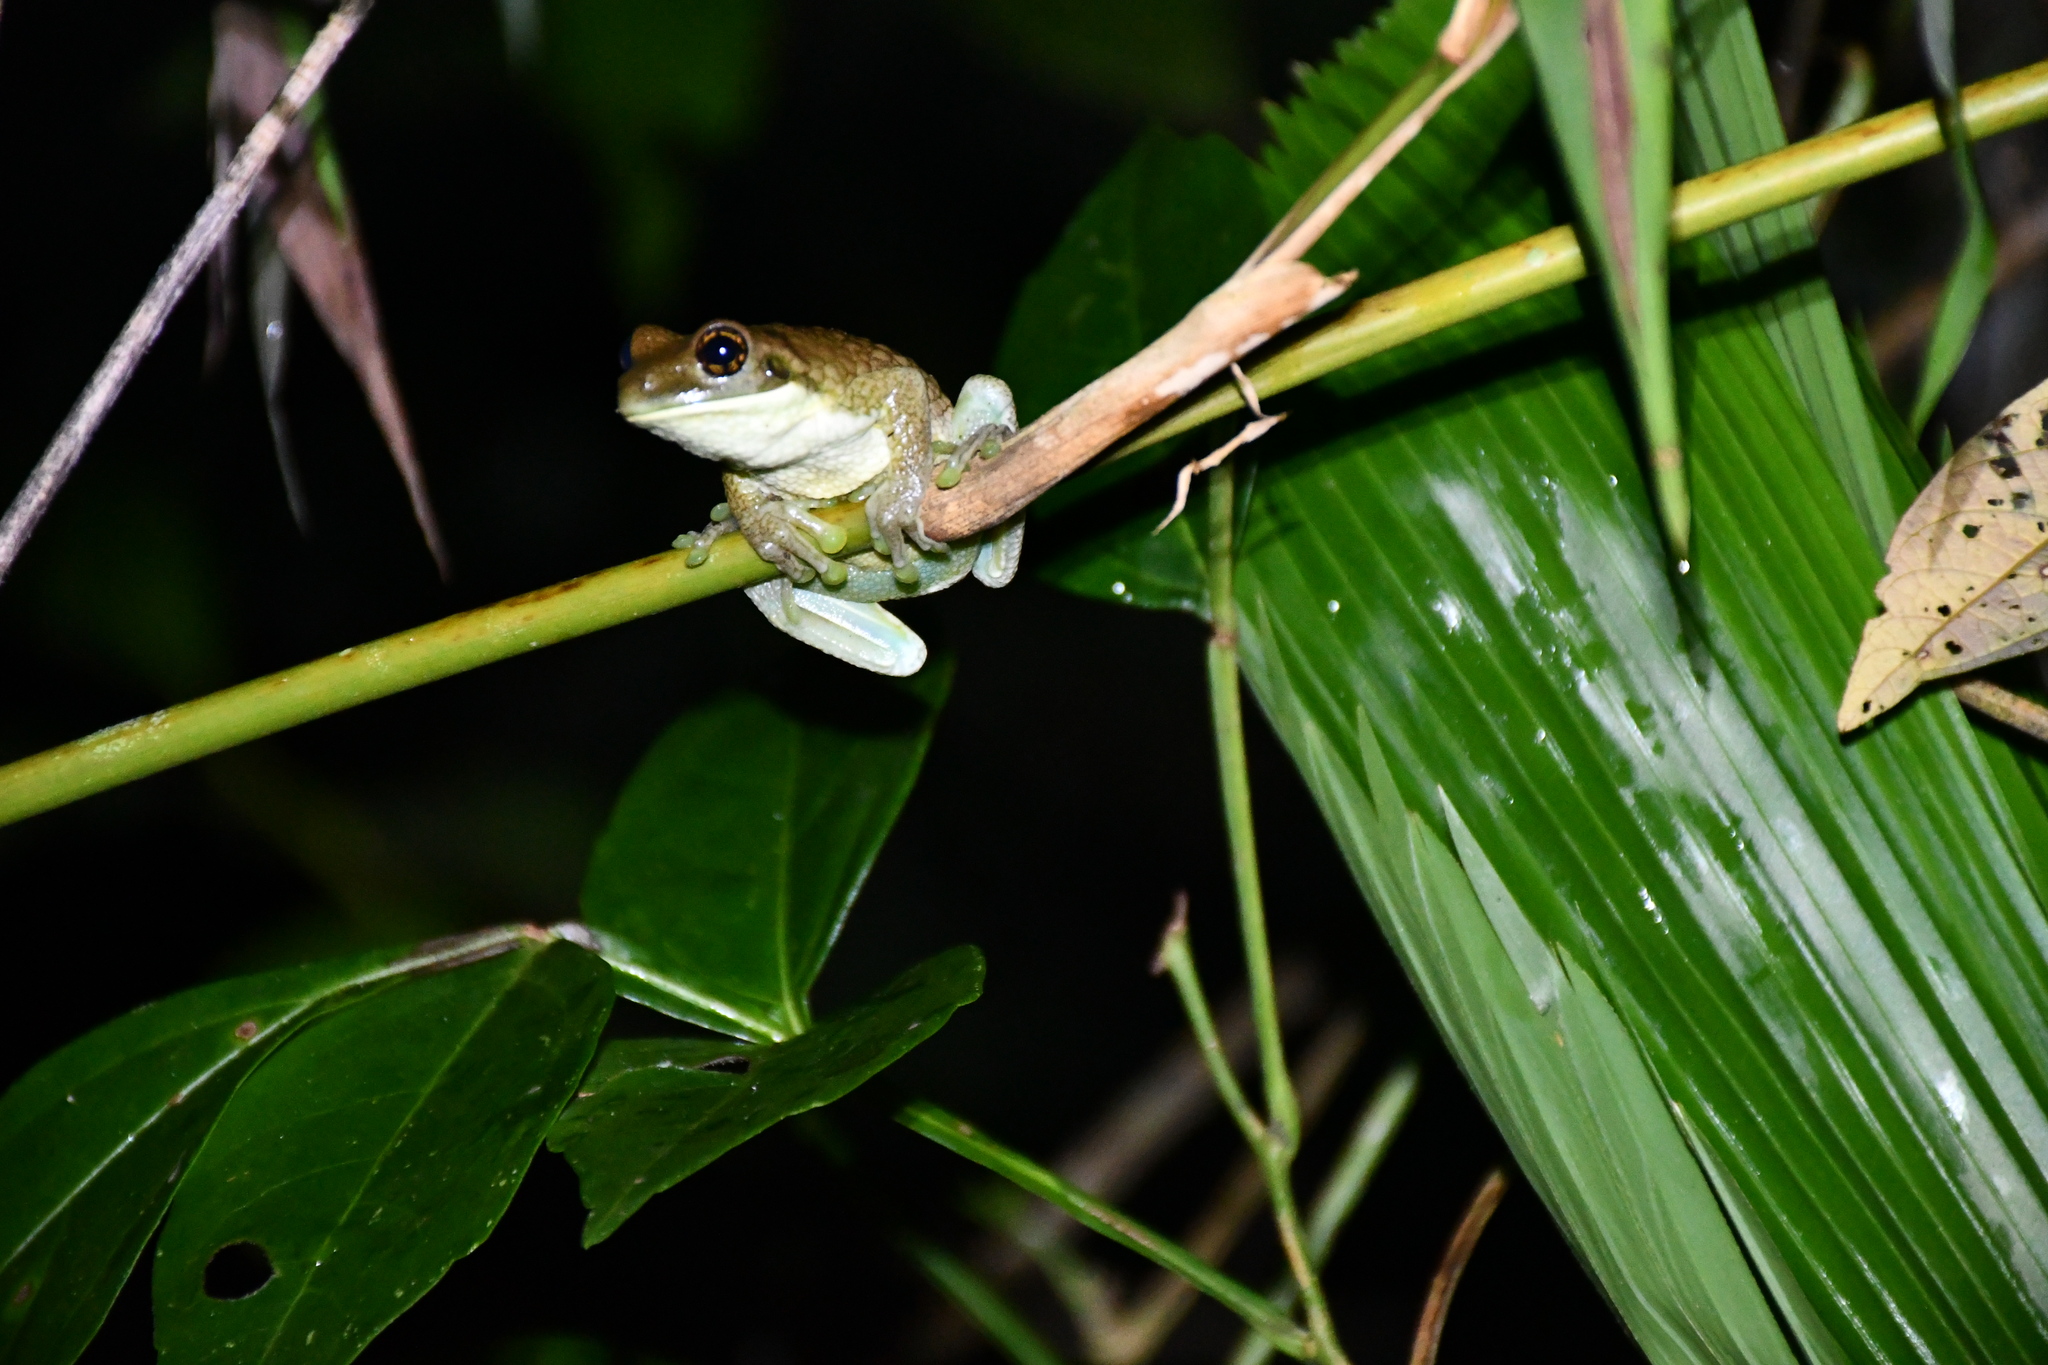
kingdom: Animalia
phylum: Chordata
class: Amphibia
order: Anura
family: Hylidae
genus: Trachycephalus
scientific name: Trachycephalus typhonius
